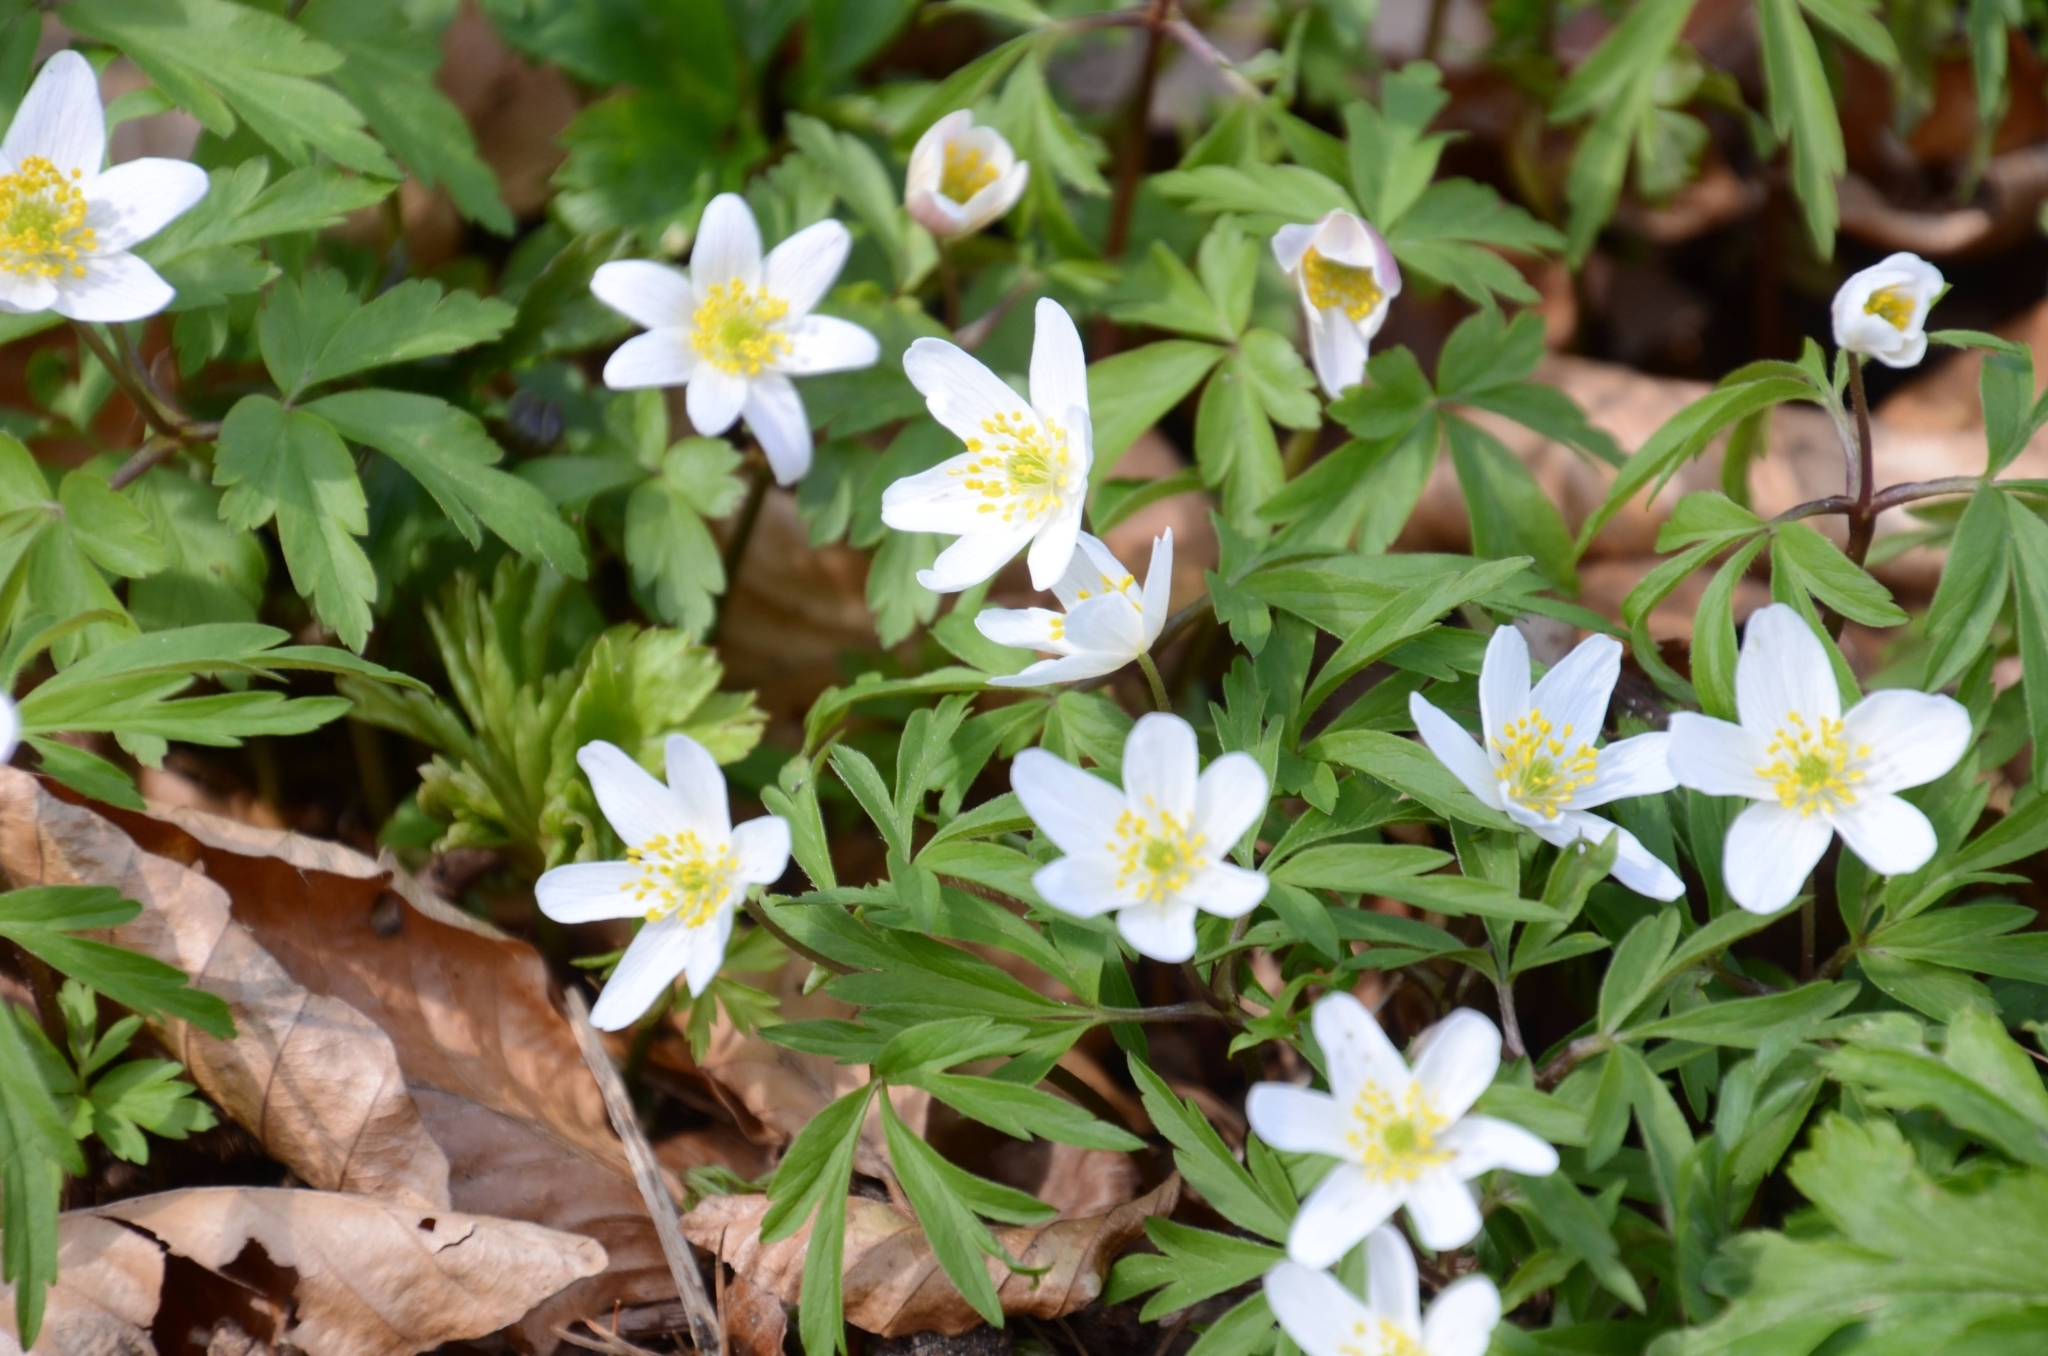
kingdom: Plantae
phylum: Tracheophyta
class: Magnoliopsida
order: Ranunculales
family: Ranunculaceae
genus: Anemone
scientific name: Anemone nemorosa
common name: Wood anemone
